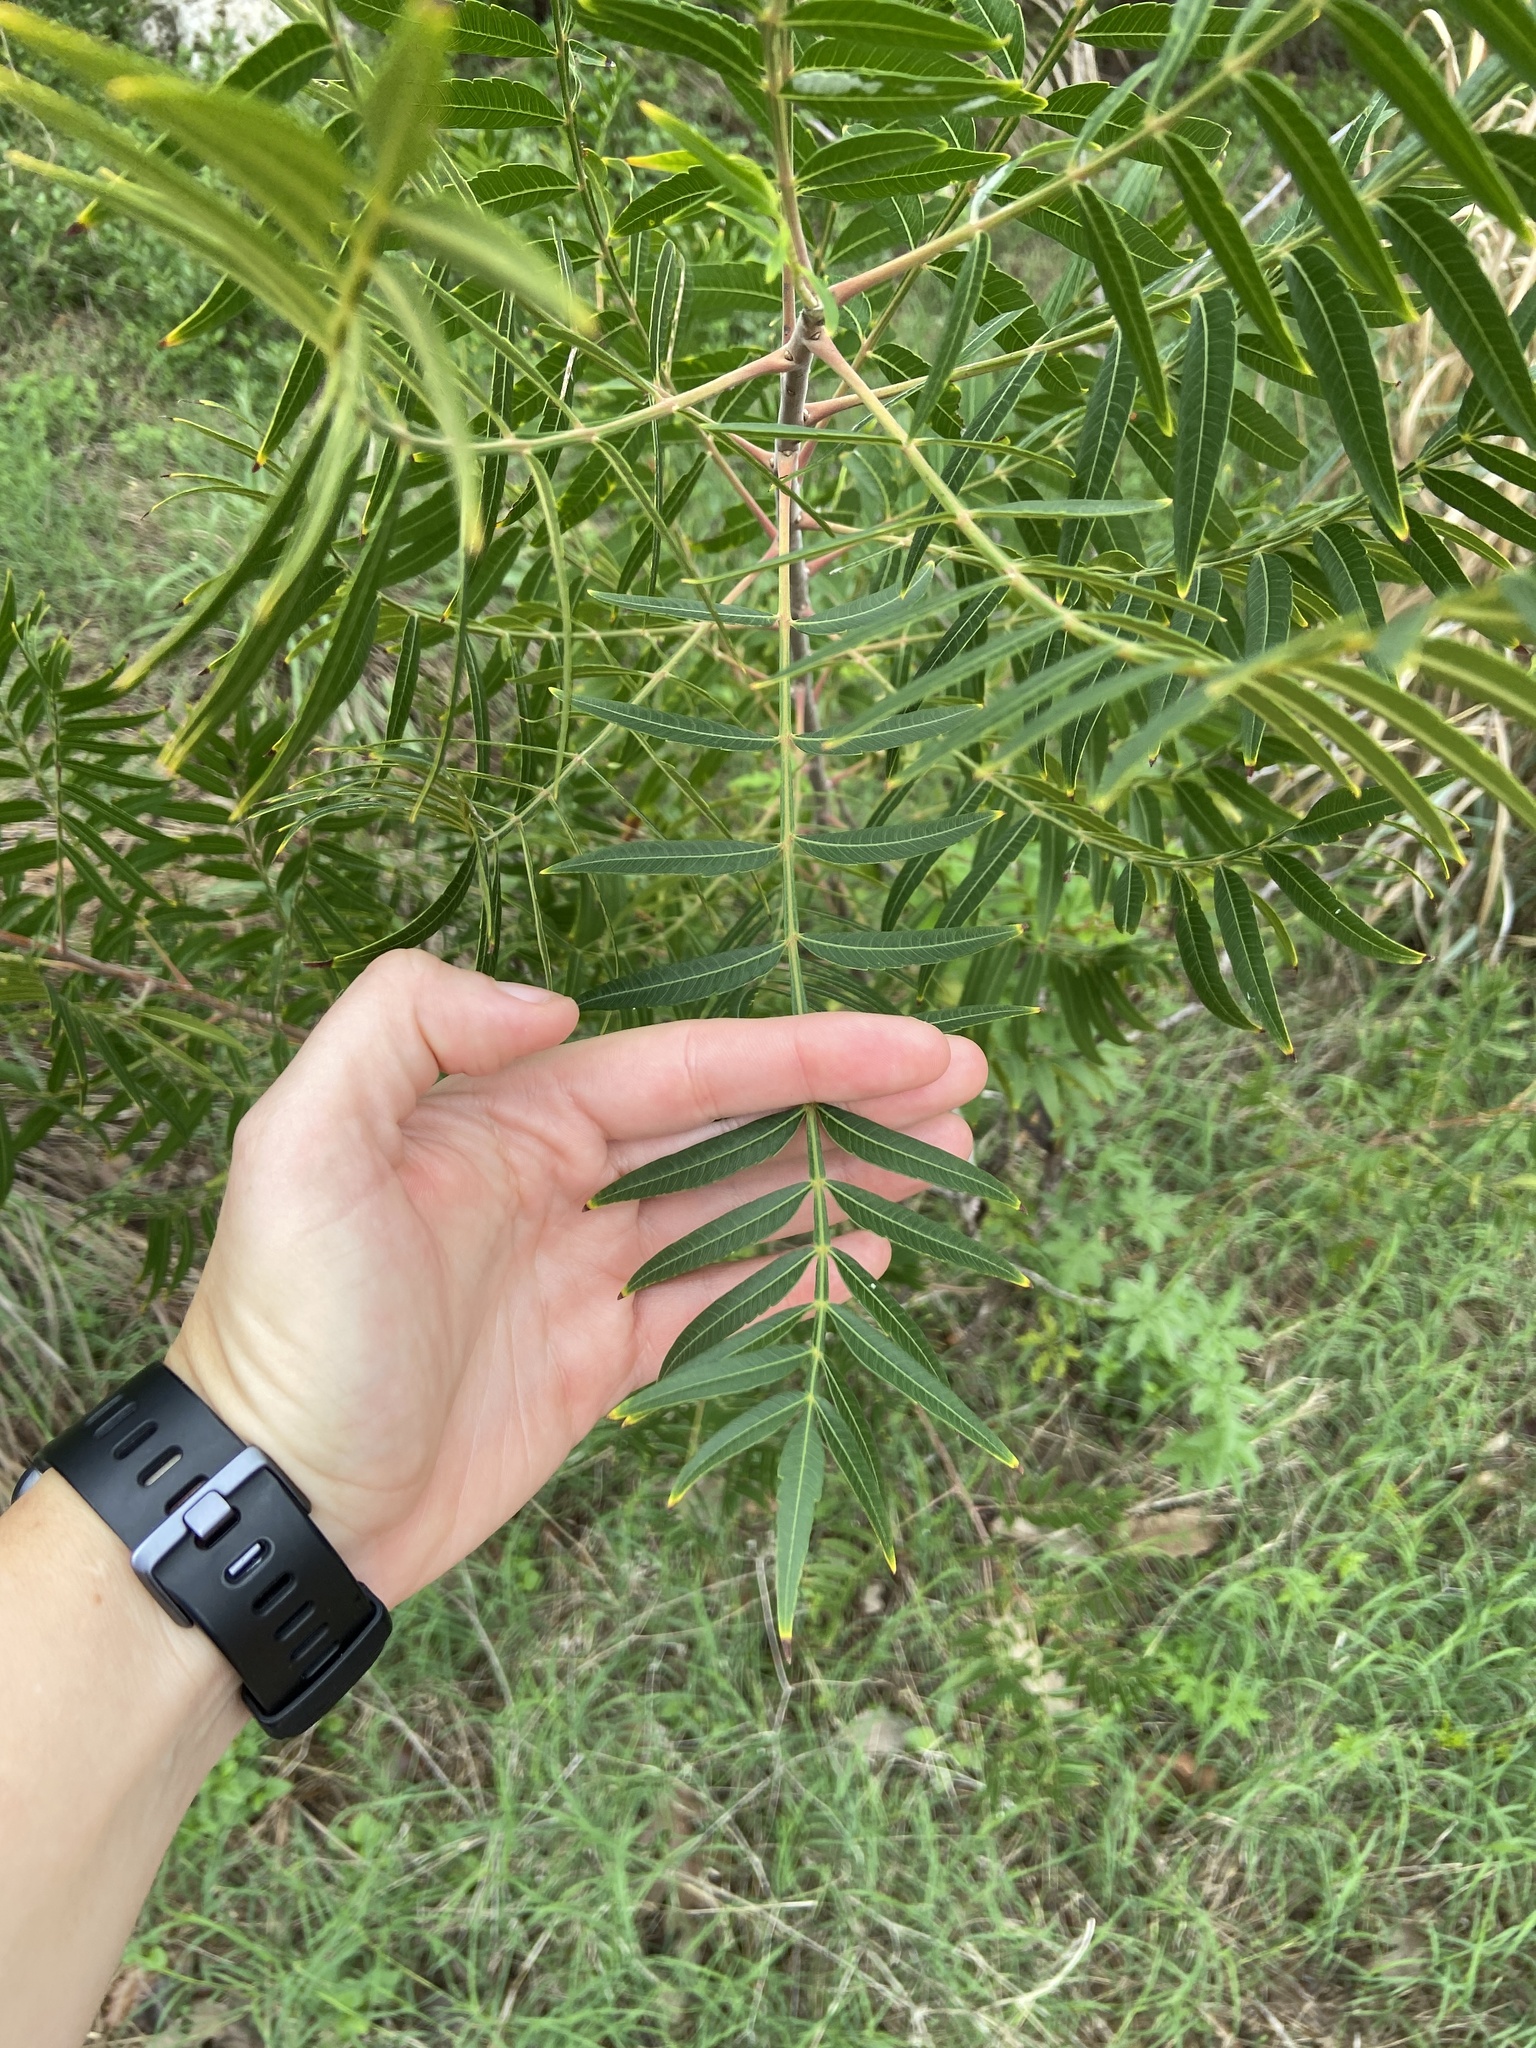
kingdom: Plantae
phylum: Tracheophyta
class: Magnoliopsida
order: Sapindales
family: Anacardiaceae
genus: Rhus
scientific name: Rhus lanceolata
